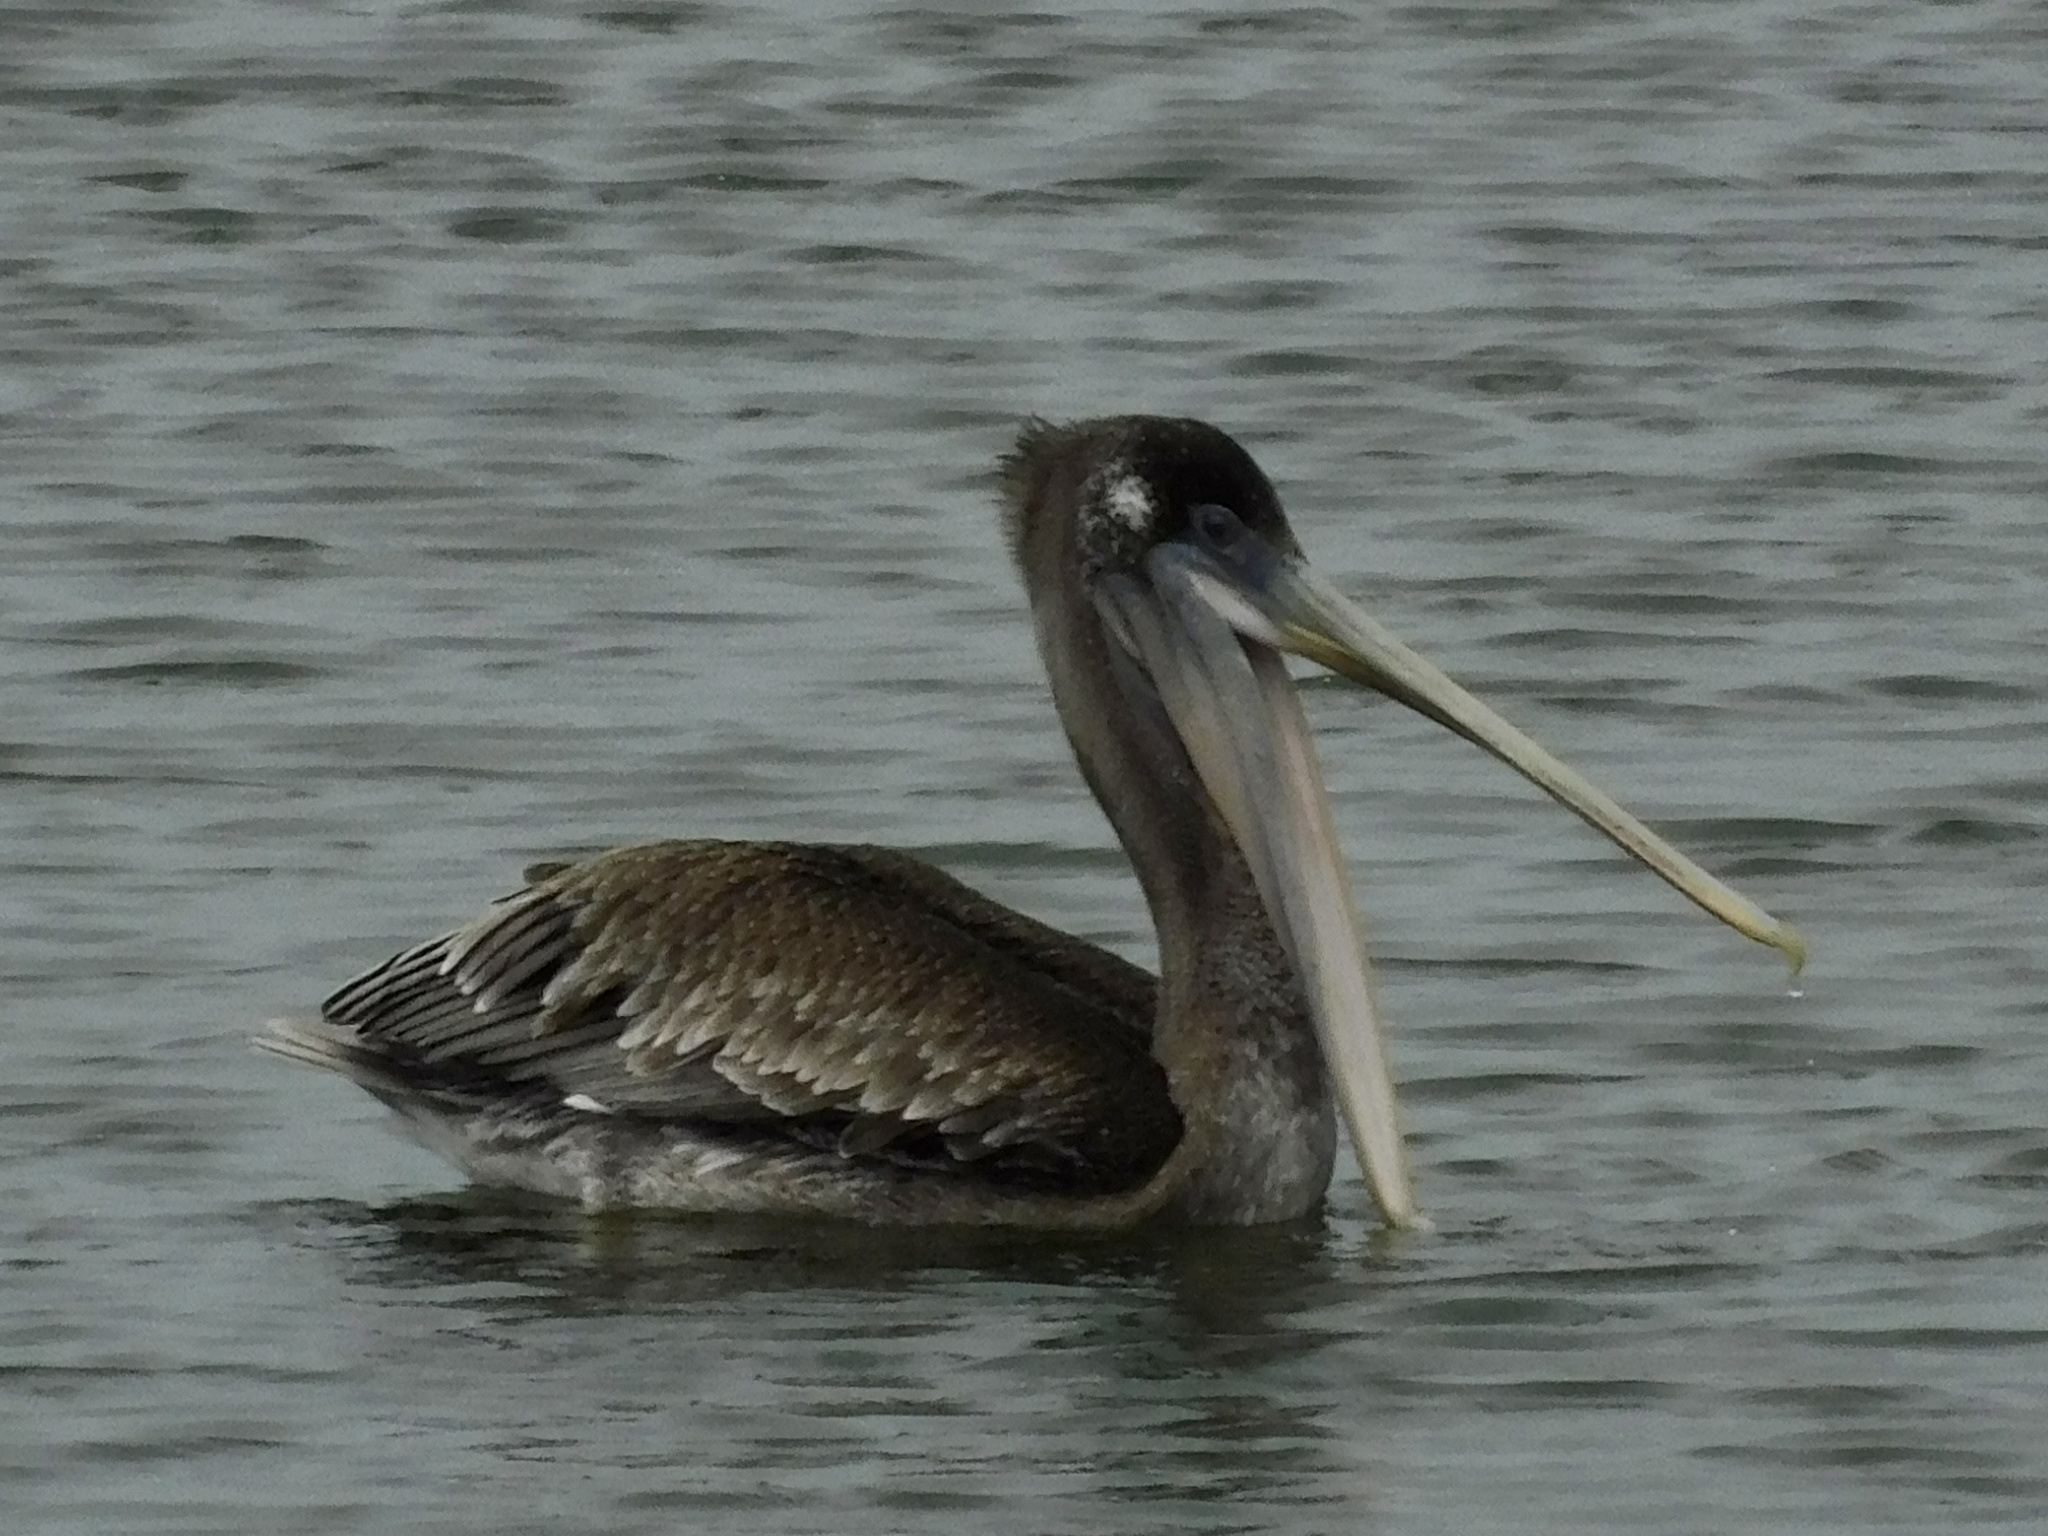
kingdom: Animalia
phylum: Chordata
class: Aves
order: Pelecaniformes
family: Pelecanidae
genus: Pelecanus
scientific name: Pelecanus occidentalis
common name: Brown pelican
